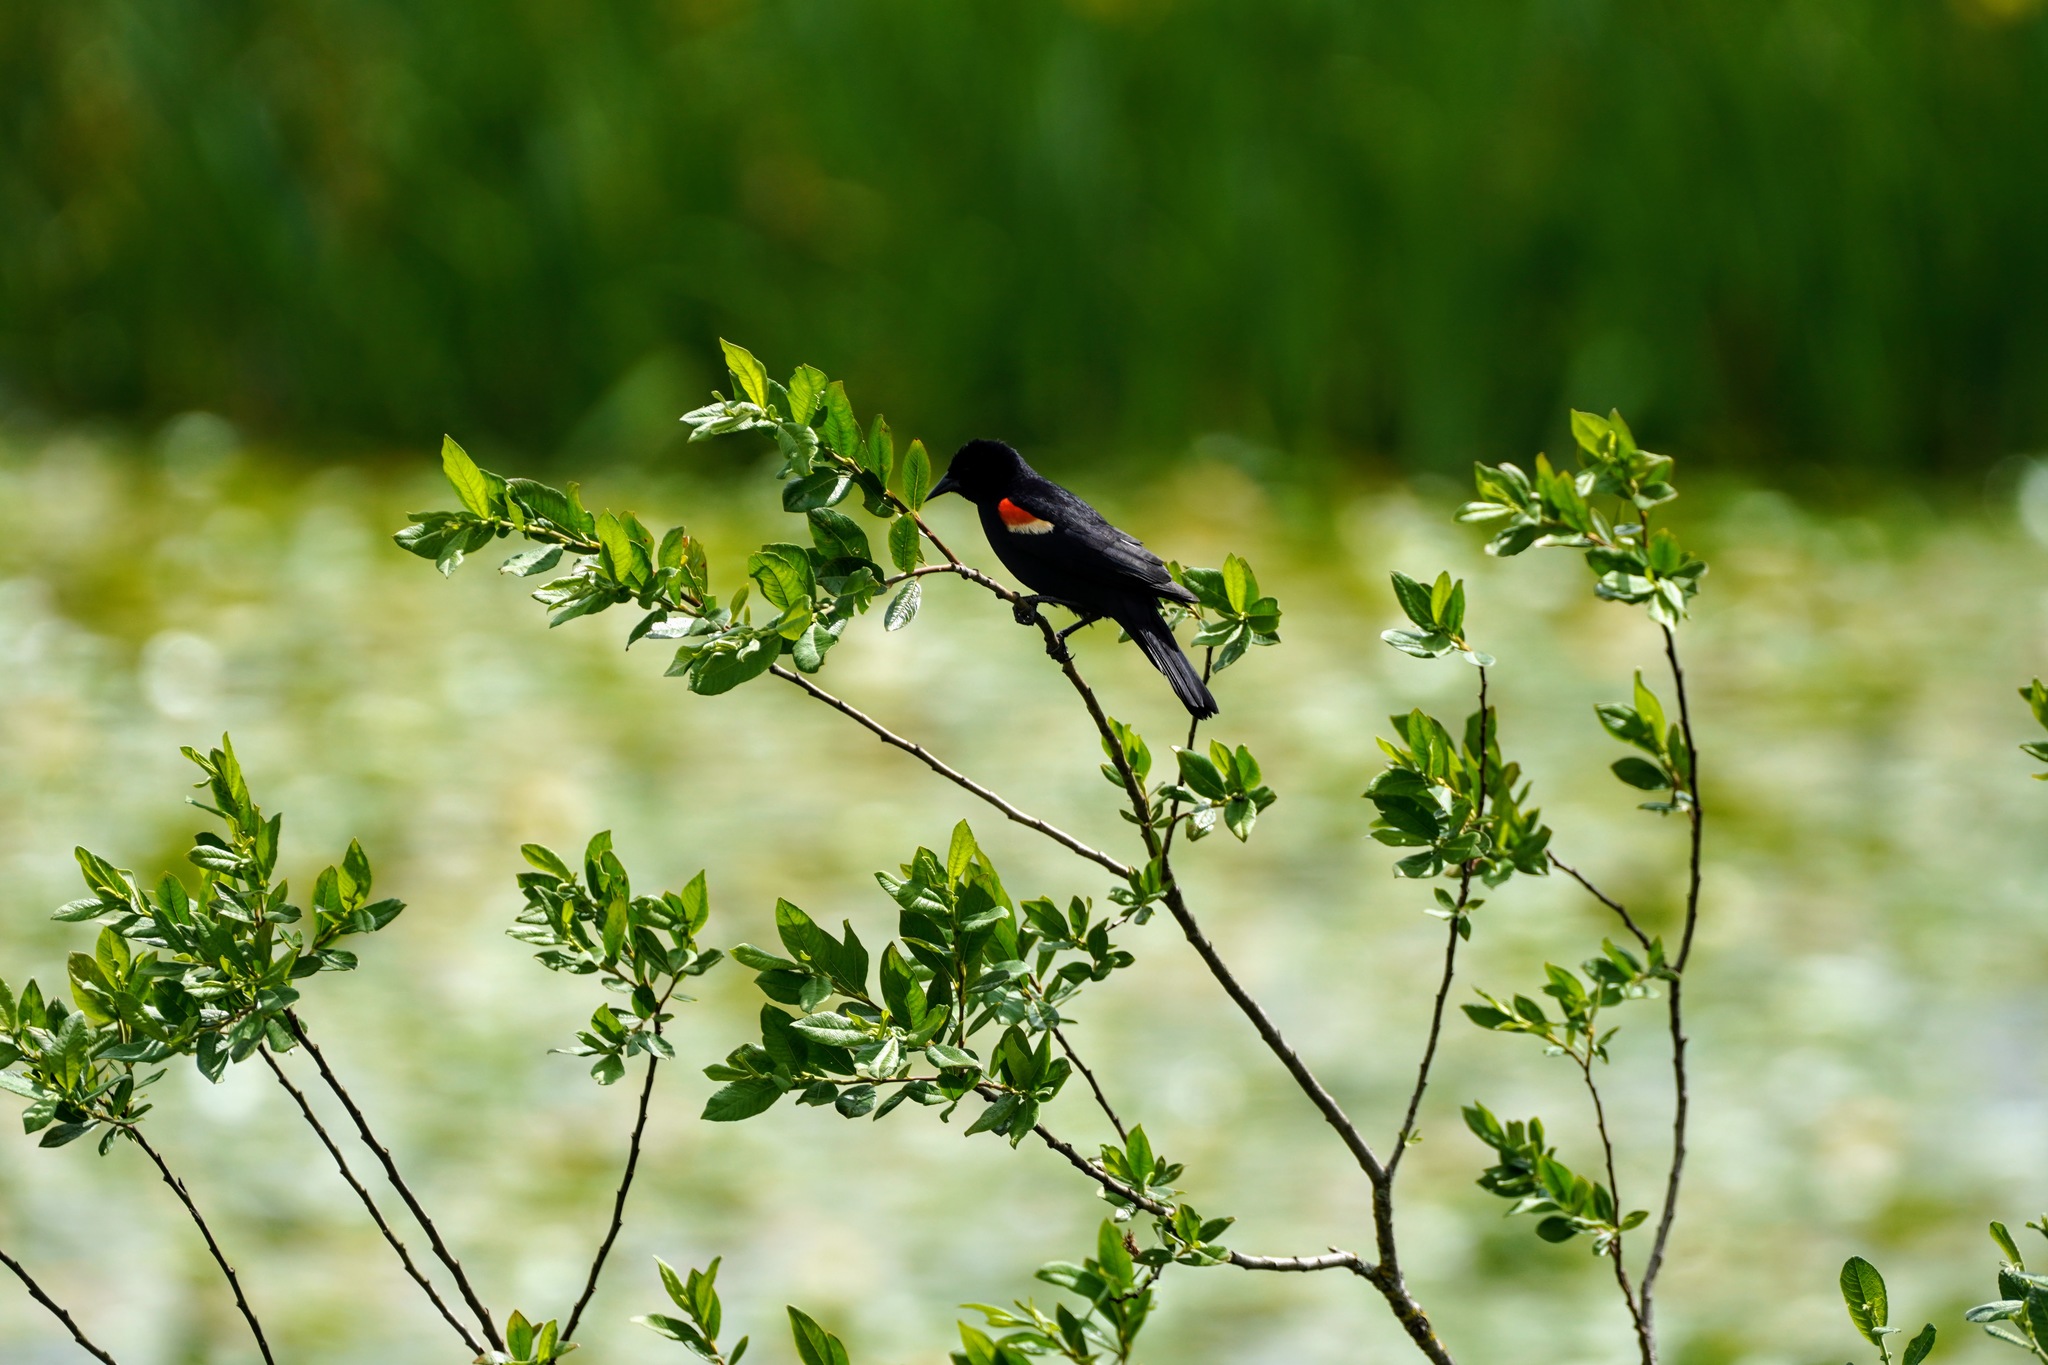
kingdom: Animalia
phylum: Chordata
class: Aves
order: Passeriformes
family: Icteridae
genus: Agelaius
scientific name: Agelaius phoeniceus
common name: Red-winged blackbird
